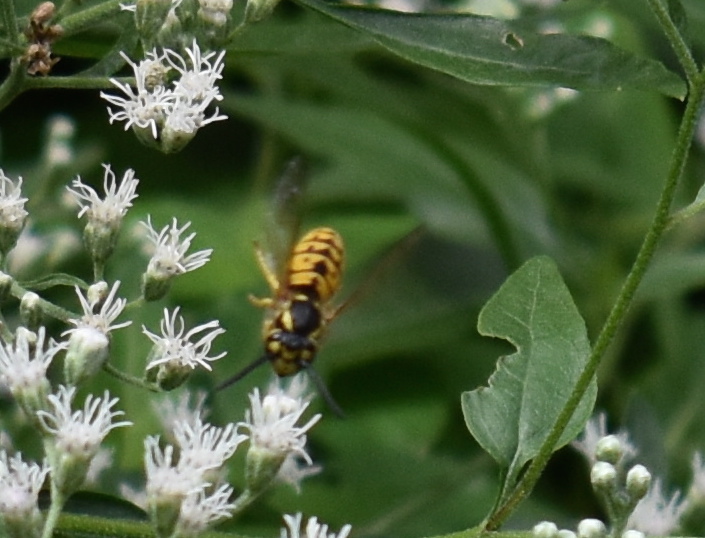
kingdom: Animalia
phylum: Arthropoda
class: Insecta
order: Hymenoptera
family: Vespidae
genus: Vespula
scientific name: Vespula germanica
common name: German wasp
